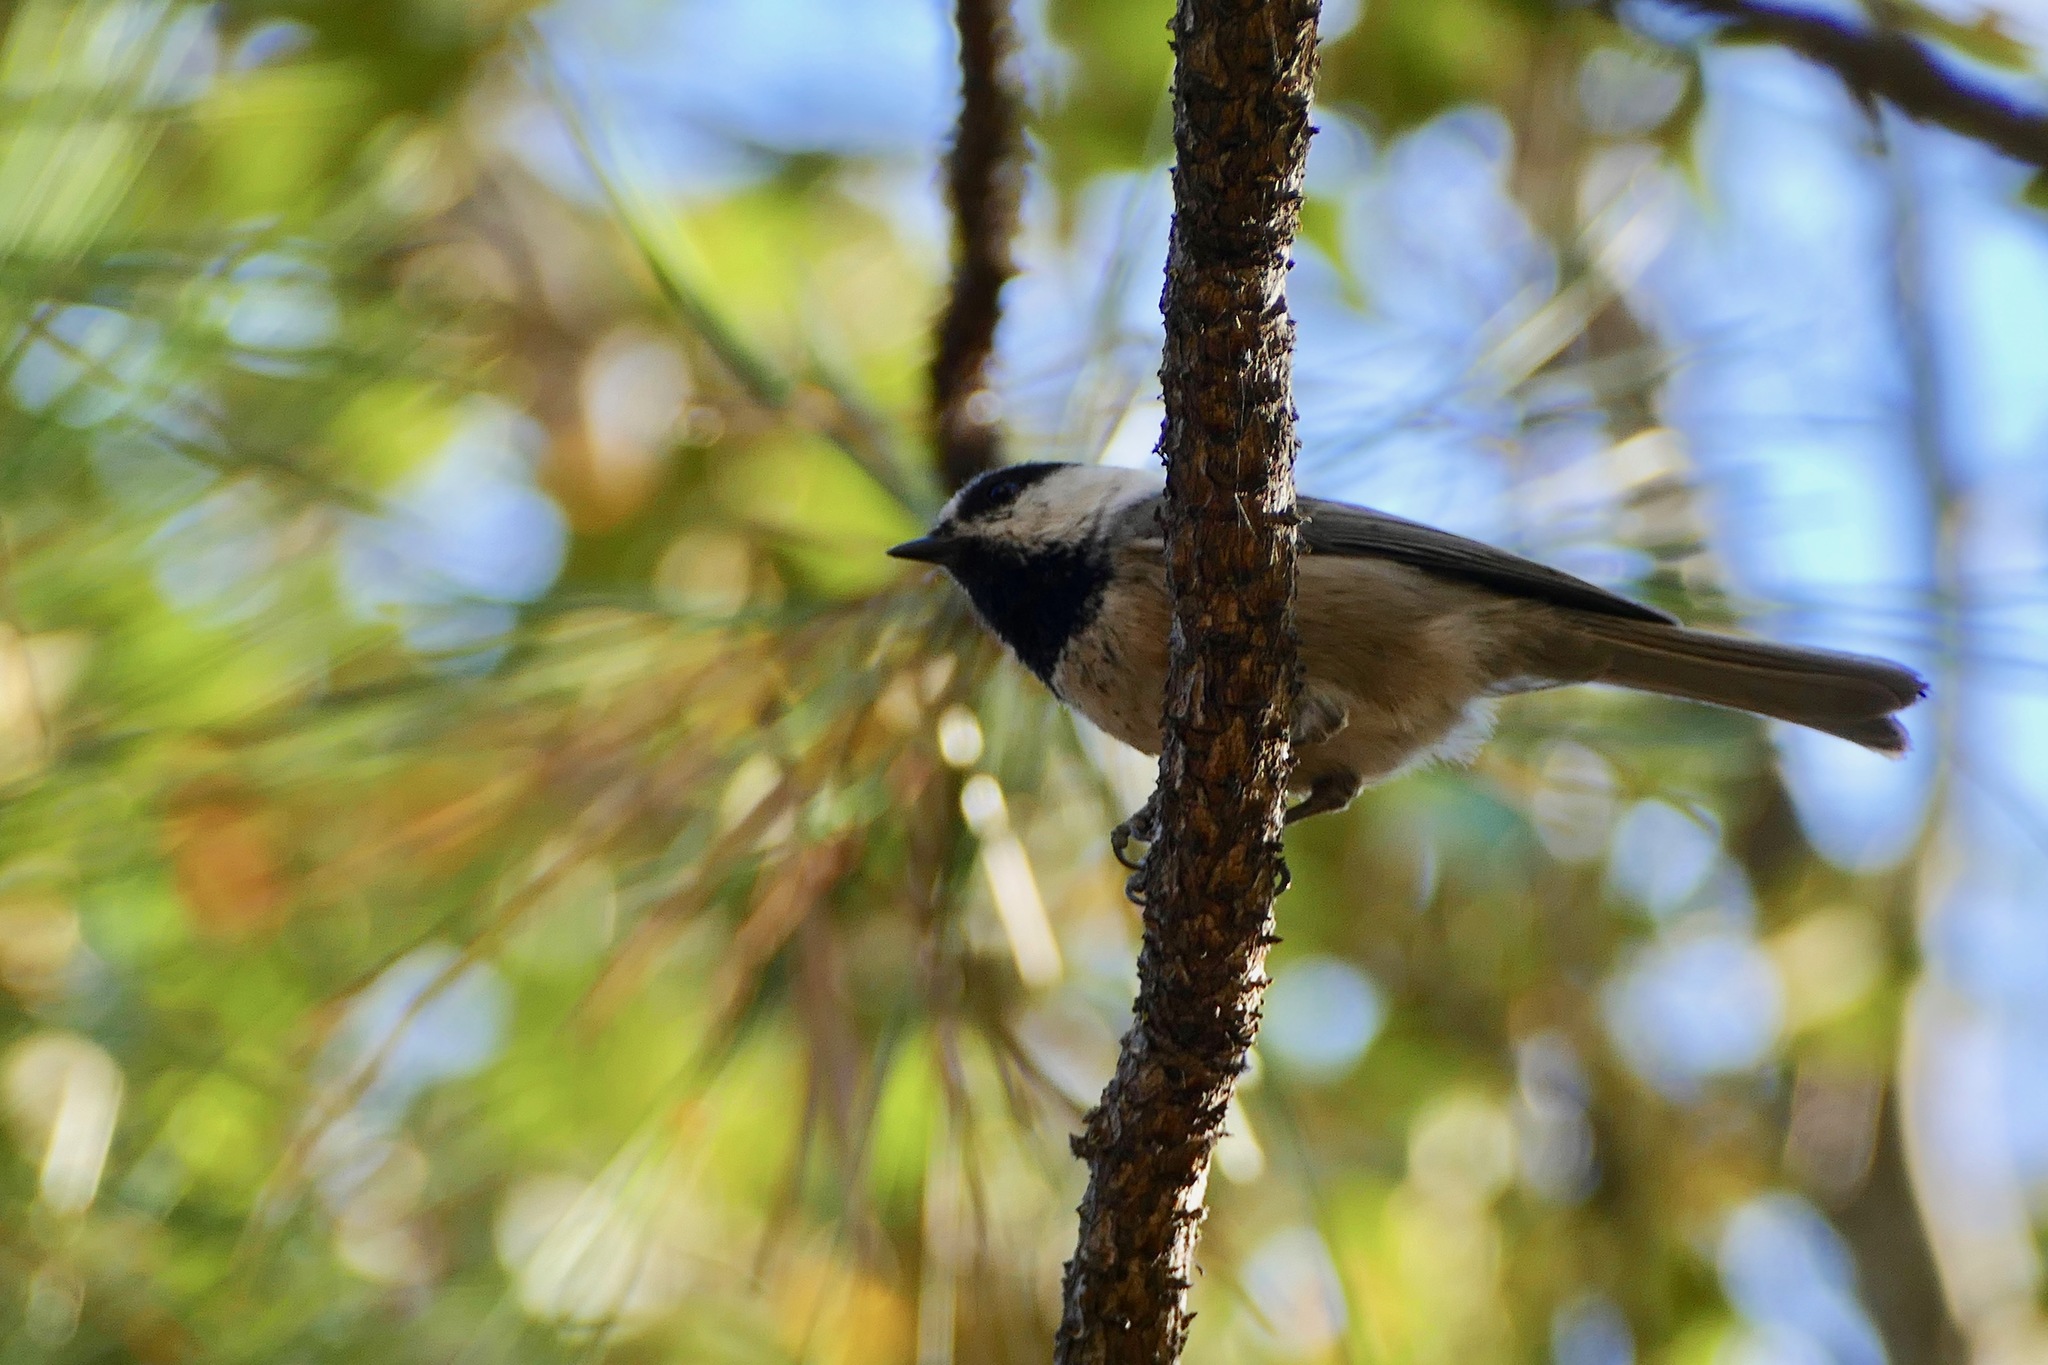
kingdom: Animalia
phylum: Chordata
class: Aves
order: Passeriformes
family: Paridae
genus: Poecile
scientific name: Poecile gambeli
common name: Mountain chickadee
